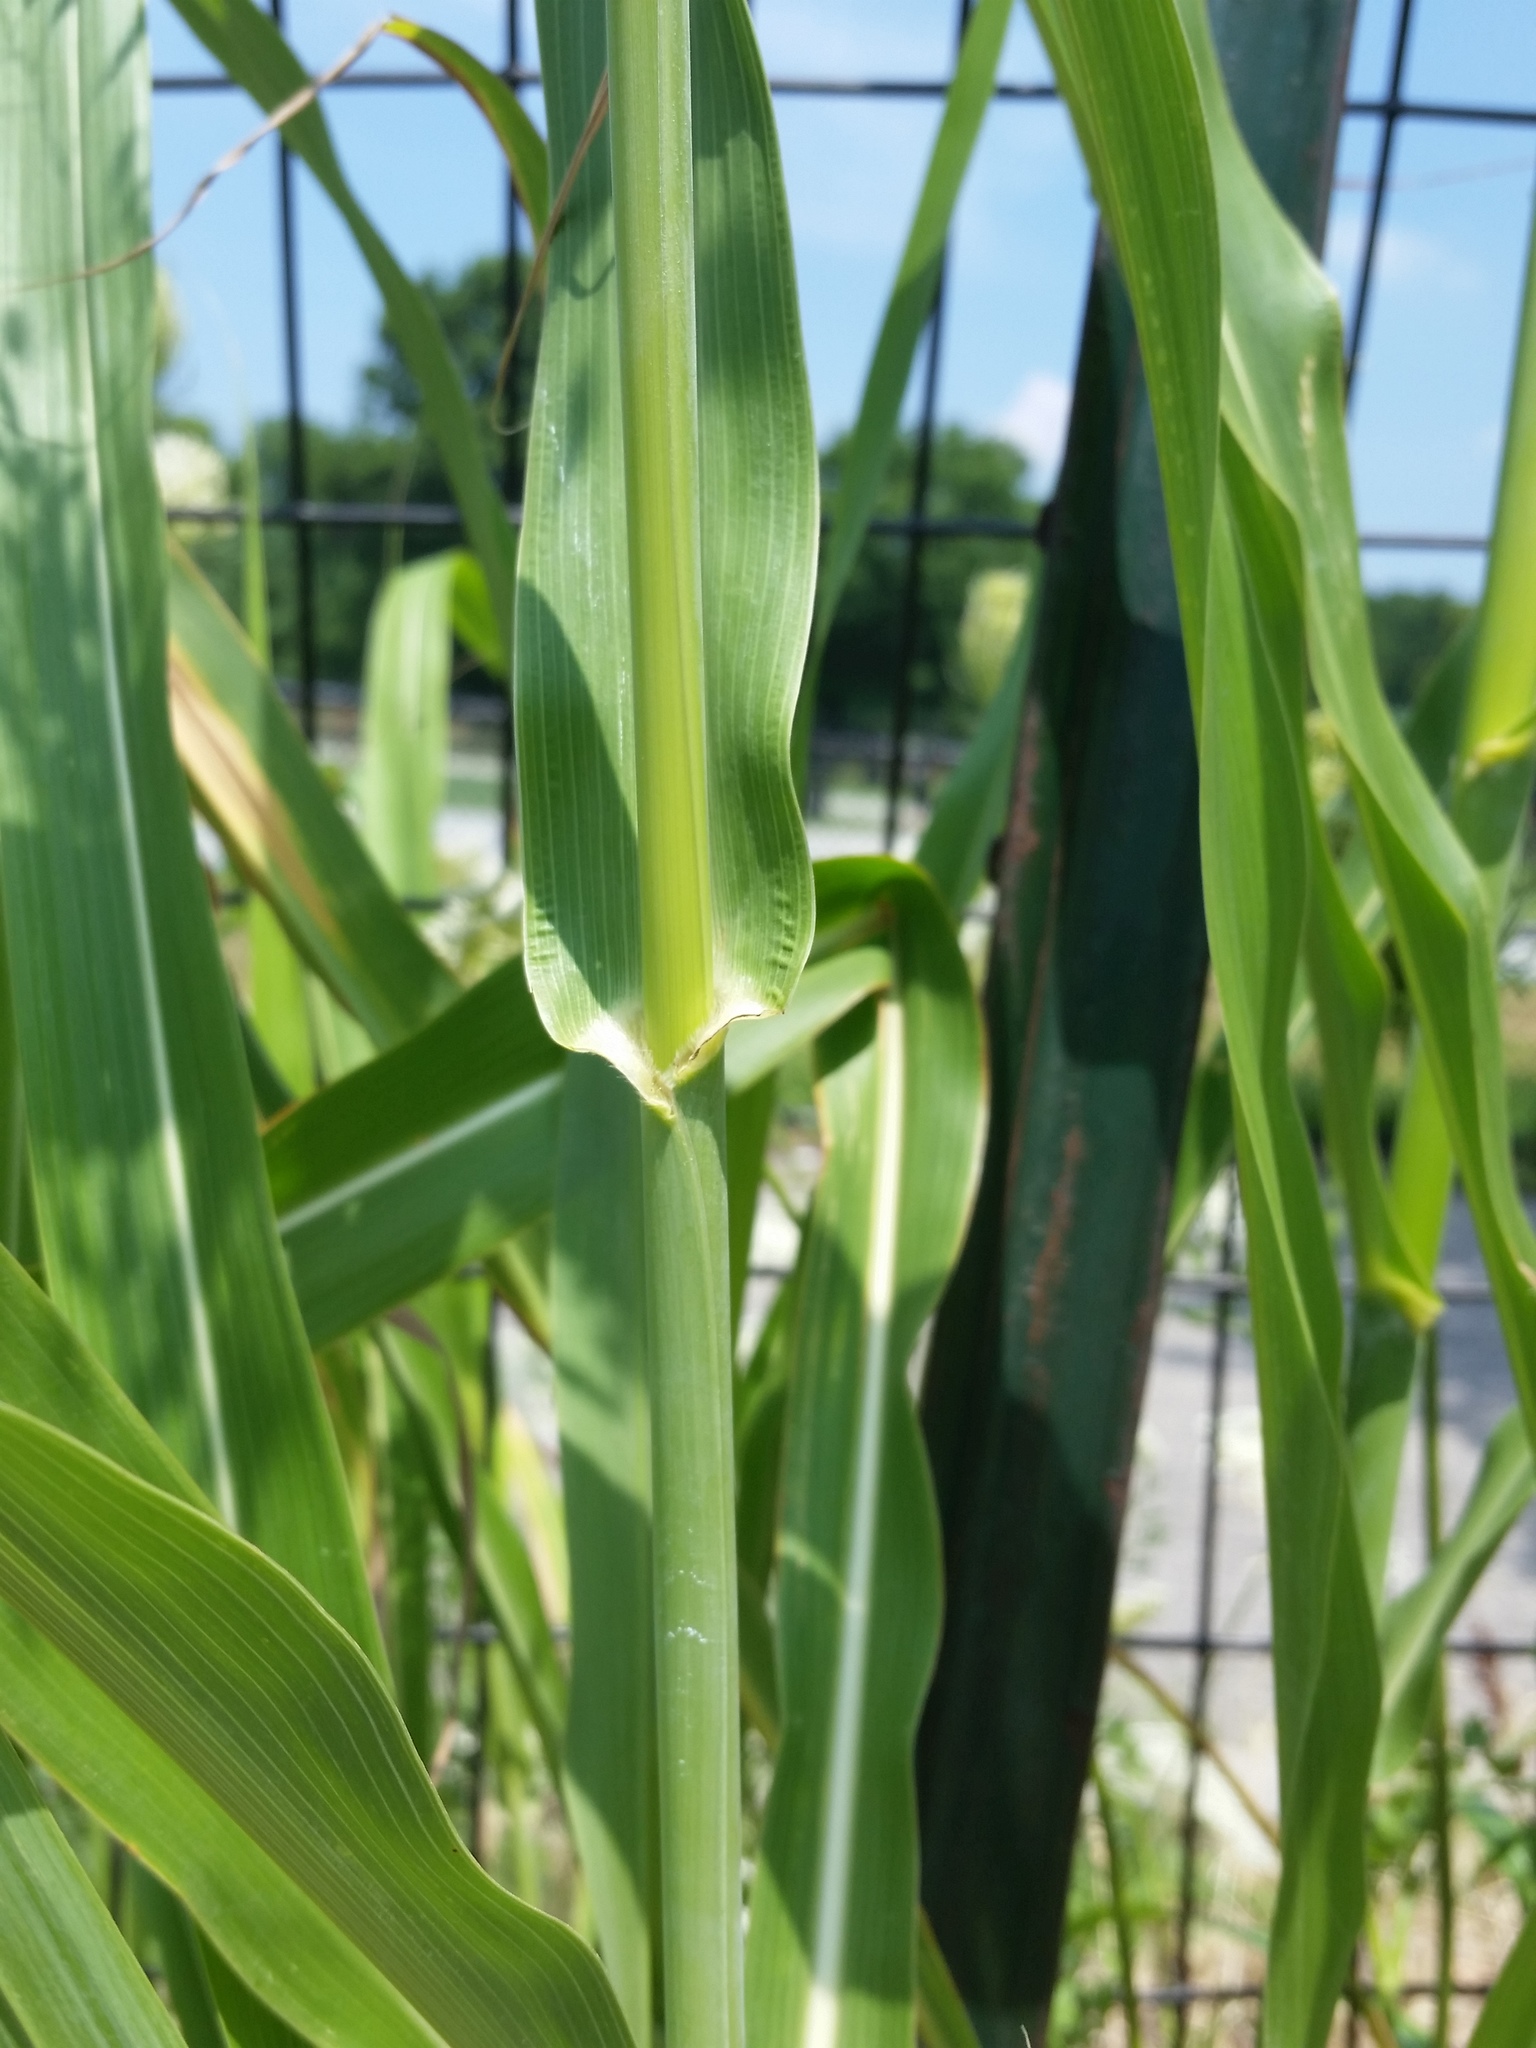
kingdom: Plantae
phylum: Tracheophyta
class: Liliopsida
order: Poales
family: Poaceae
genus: Sorghum
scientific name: Sorghum halepense
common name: Johnson-grass
